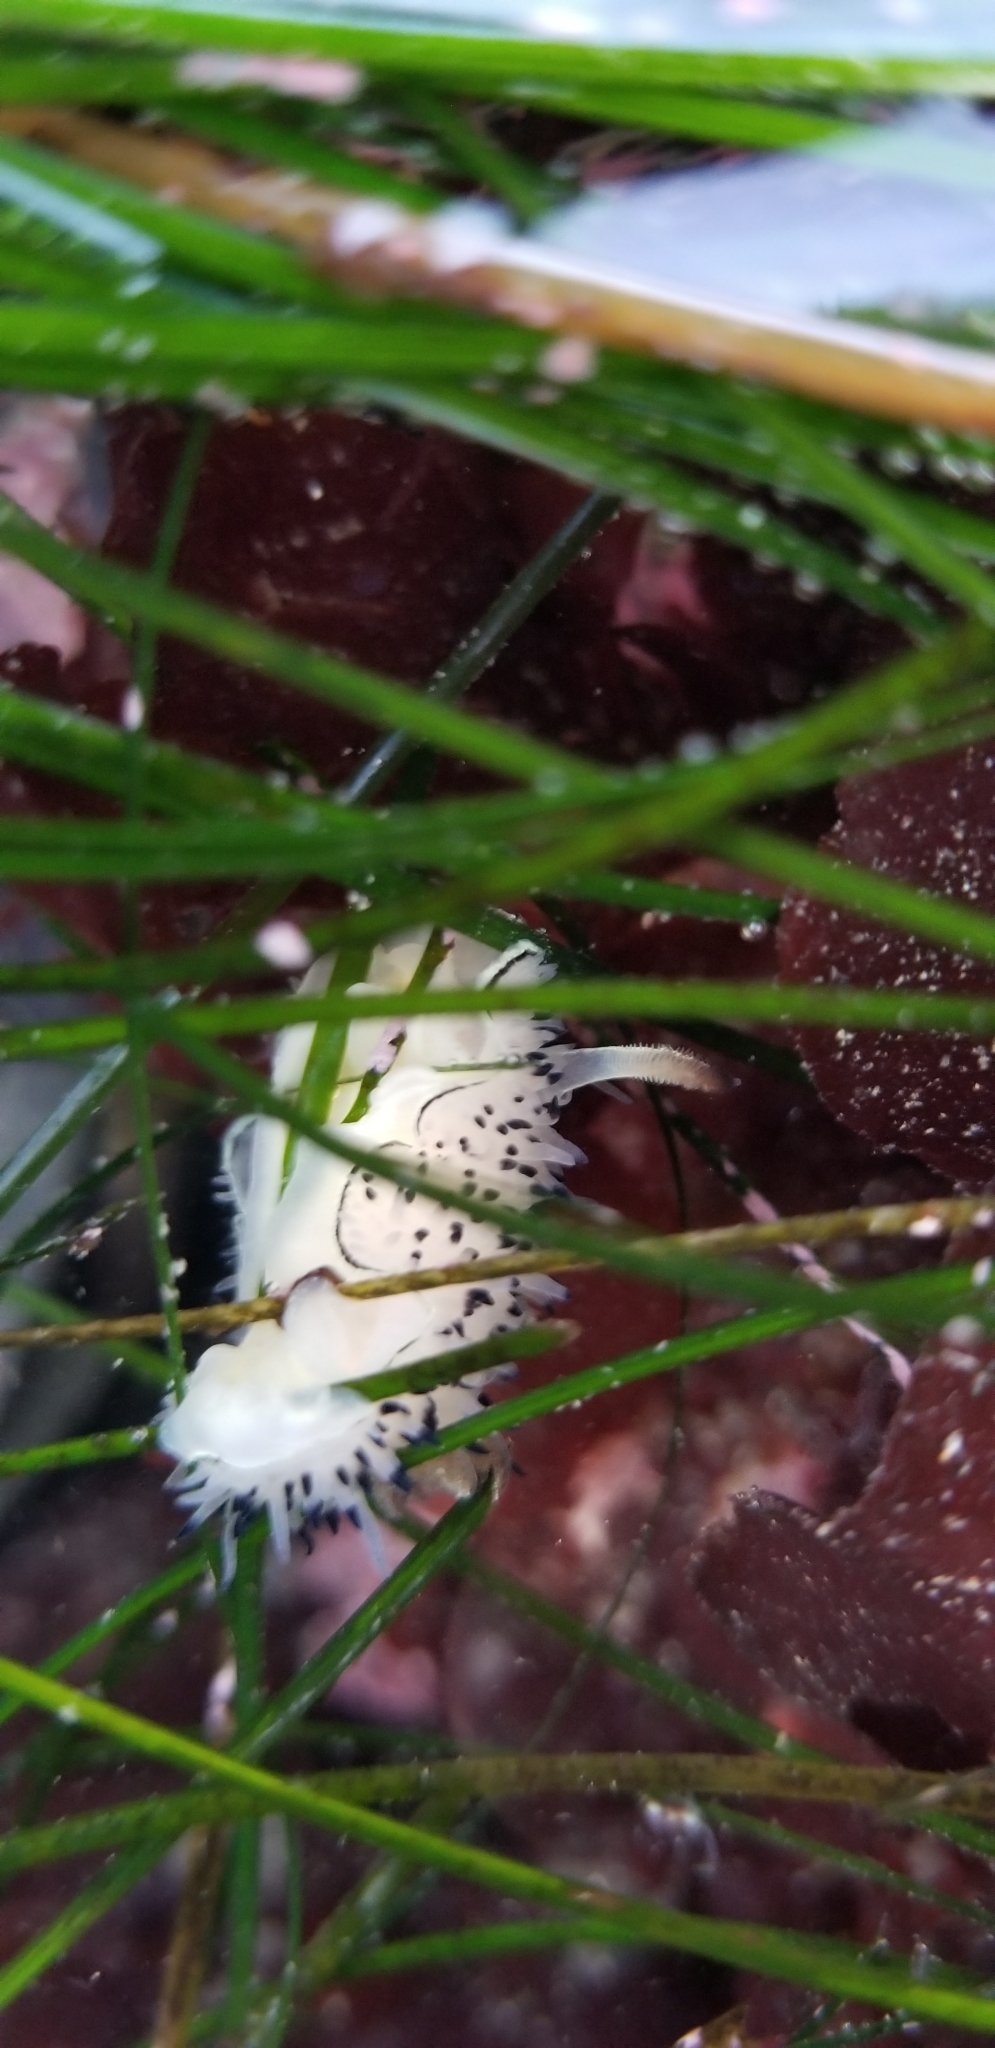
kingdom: Animalia
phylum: Mollusca
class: Gastropoda
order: Nudibranchia
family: Onchidorididae
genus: Acanthodoris
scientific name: Acanthodoris rhodoceras
